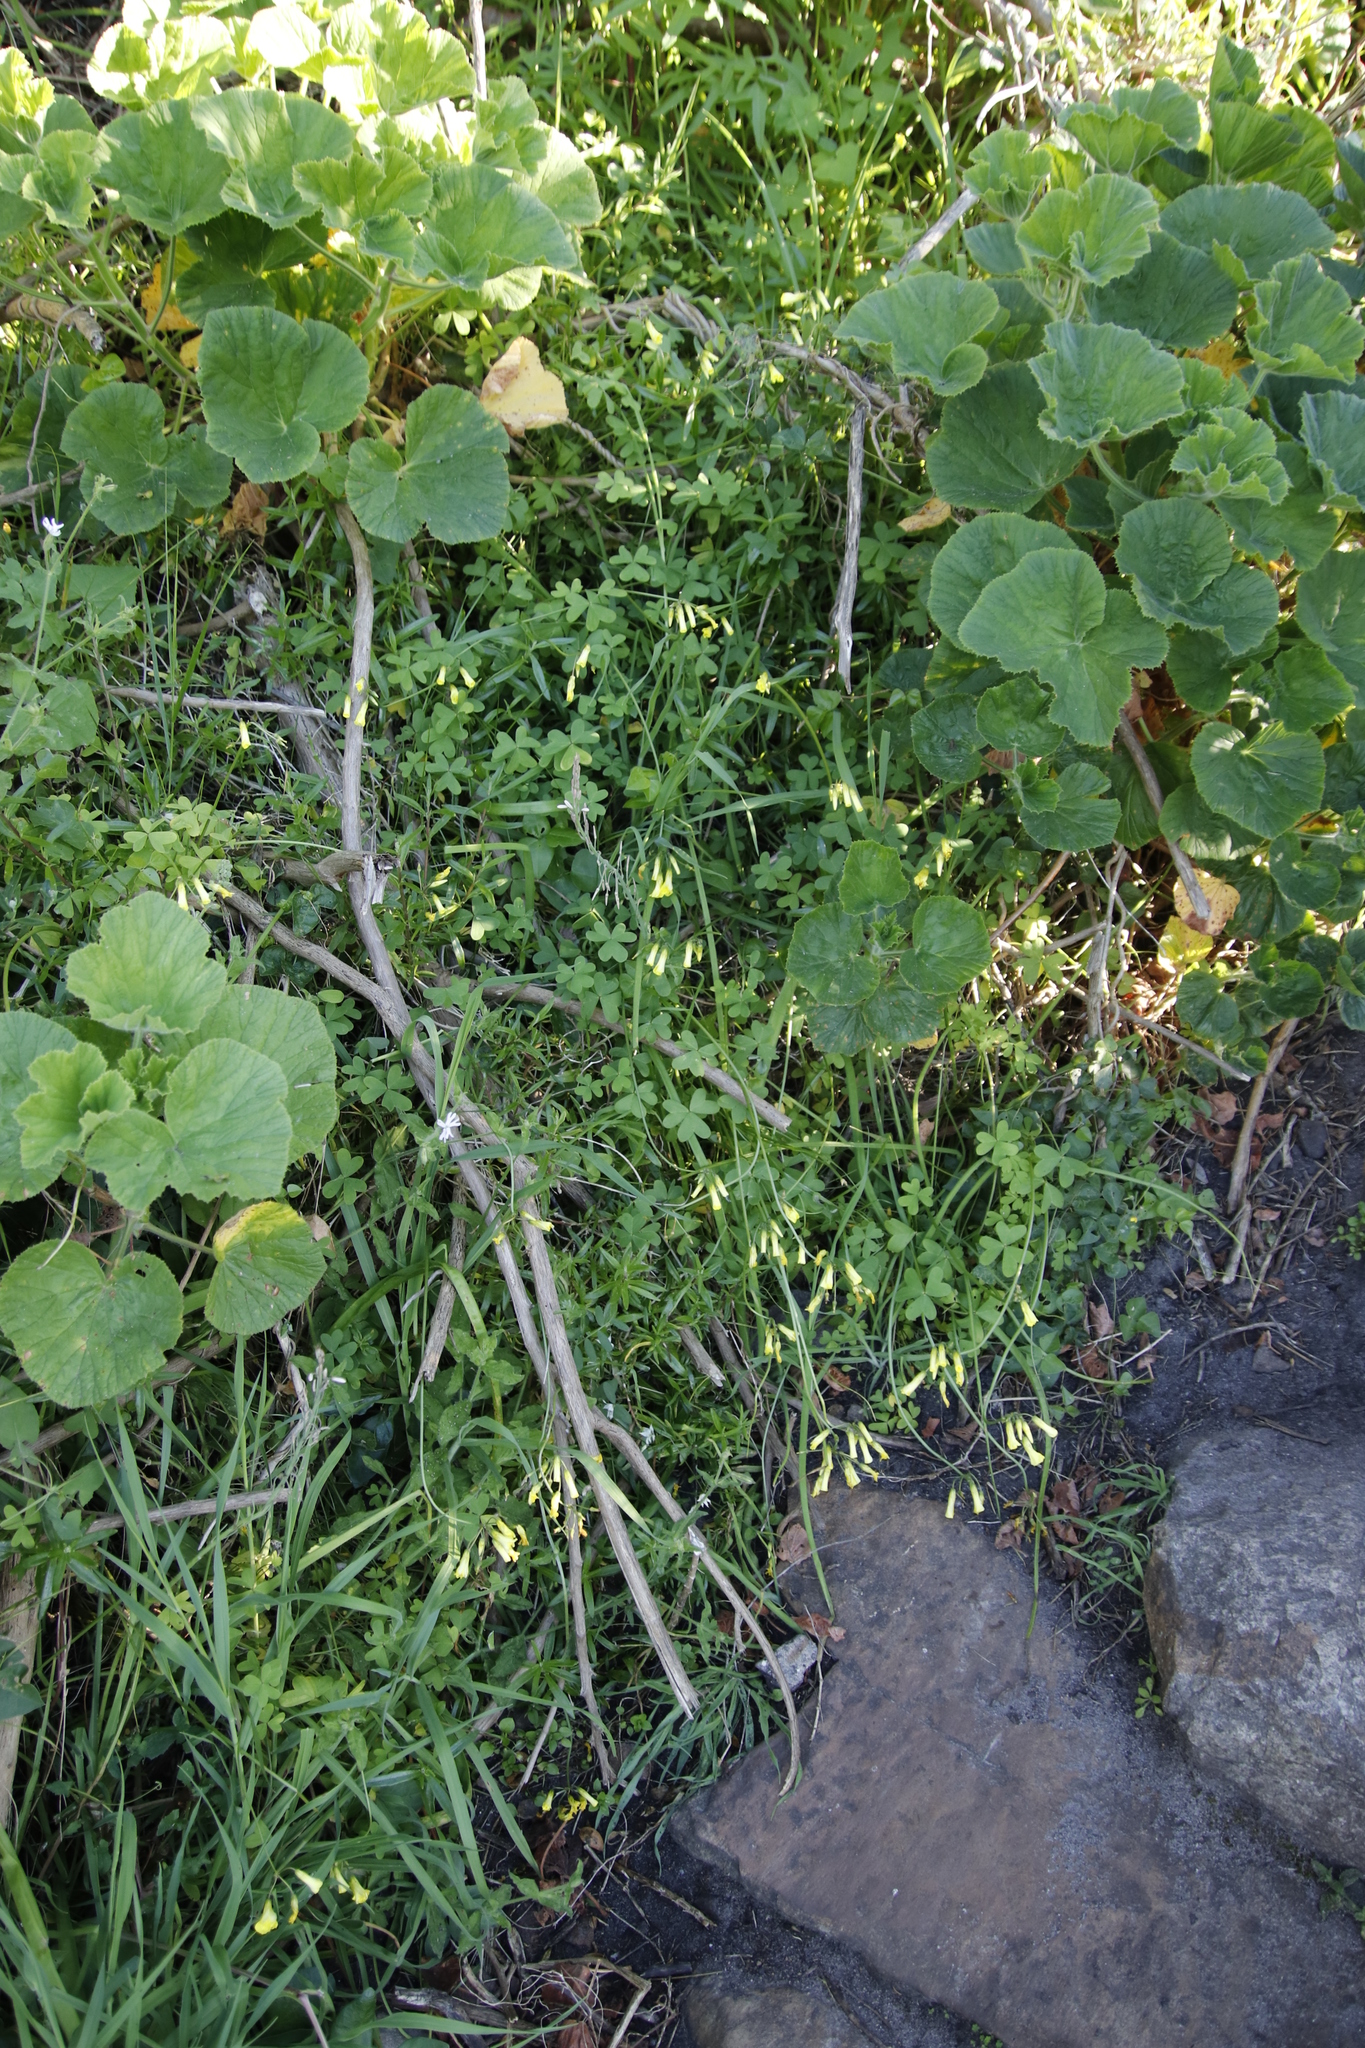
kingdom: Plantae
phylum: Tracheophyta
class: Magnoliopsida
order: Oxalidales
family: Oxalidaceae
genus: Oxalis
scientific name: Oxalis pes-caprae
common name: Bermuda-buttercup
